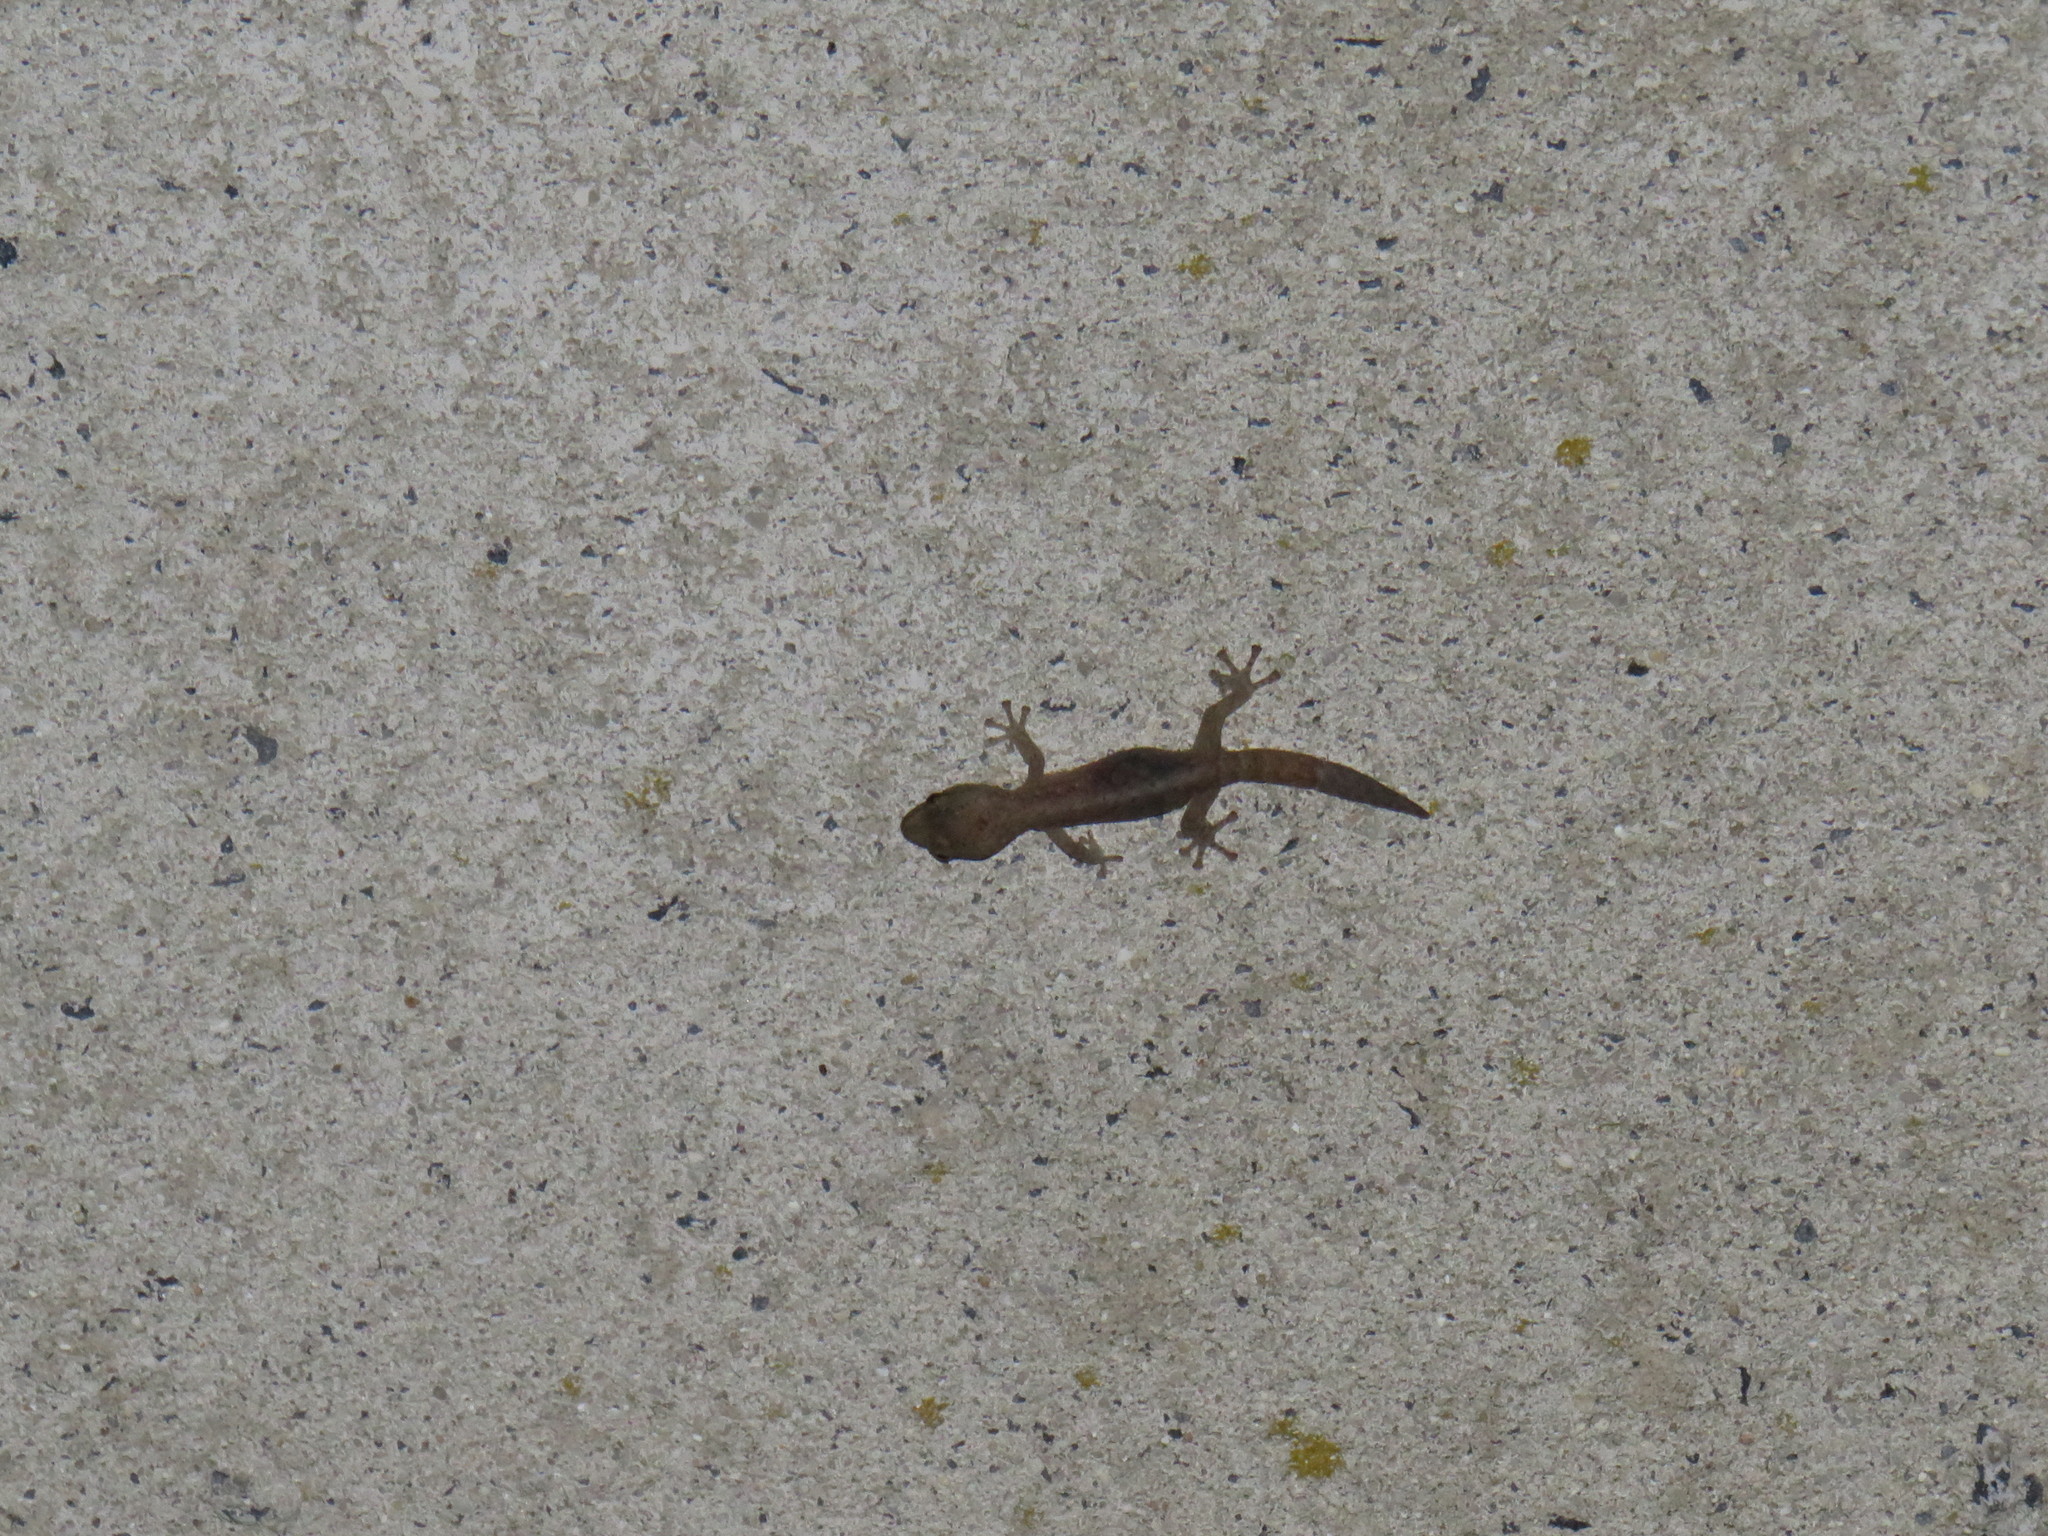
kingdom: Animalia
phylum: Chordata
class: Squamata
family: Gekkonidae
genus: Afrogecko
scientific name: Afrogecko porphyreus
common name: Marbled leaf-toed gecko
